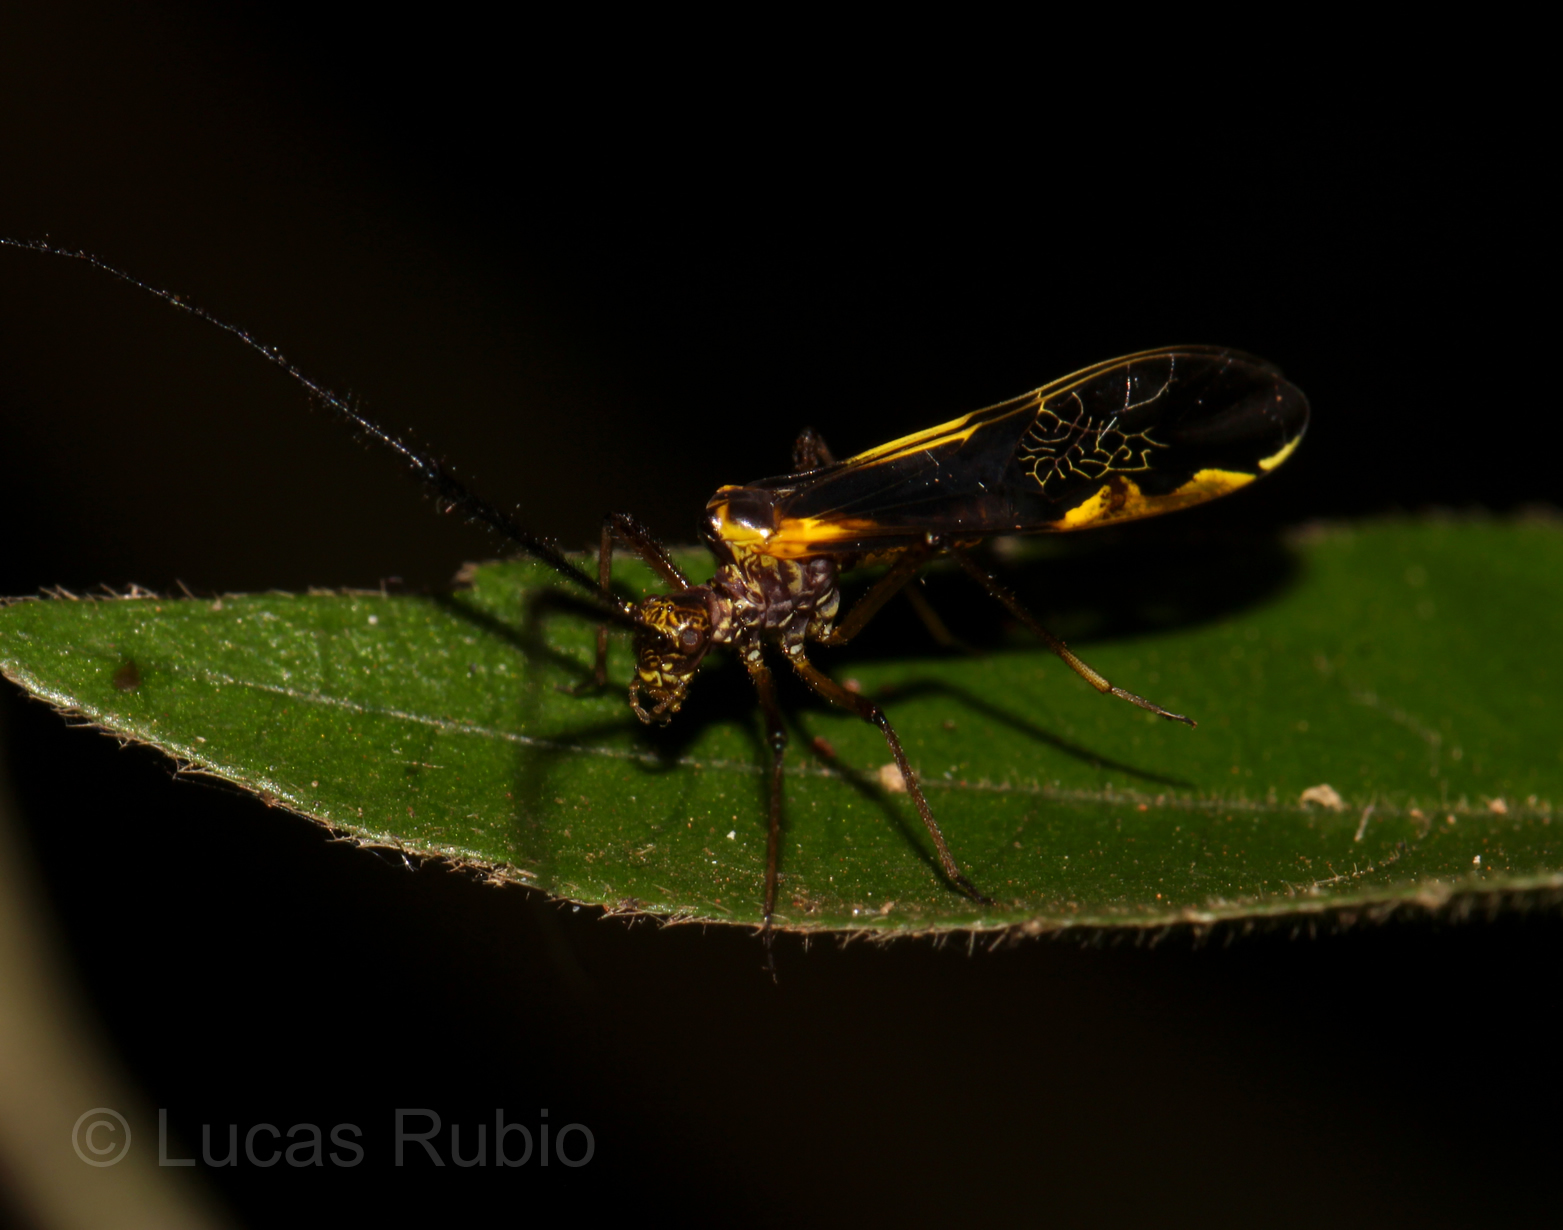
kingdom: Animalia
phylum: Arthropoda
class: Insecta
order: Psocodea
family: Psocidae
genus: Dictyopsocus
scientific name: Dictyopsocus pennicornis
